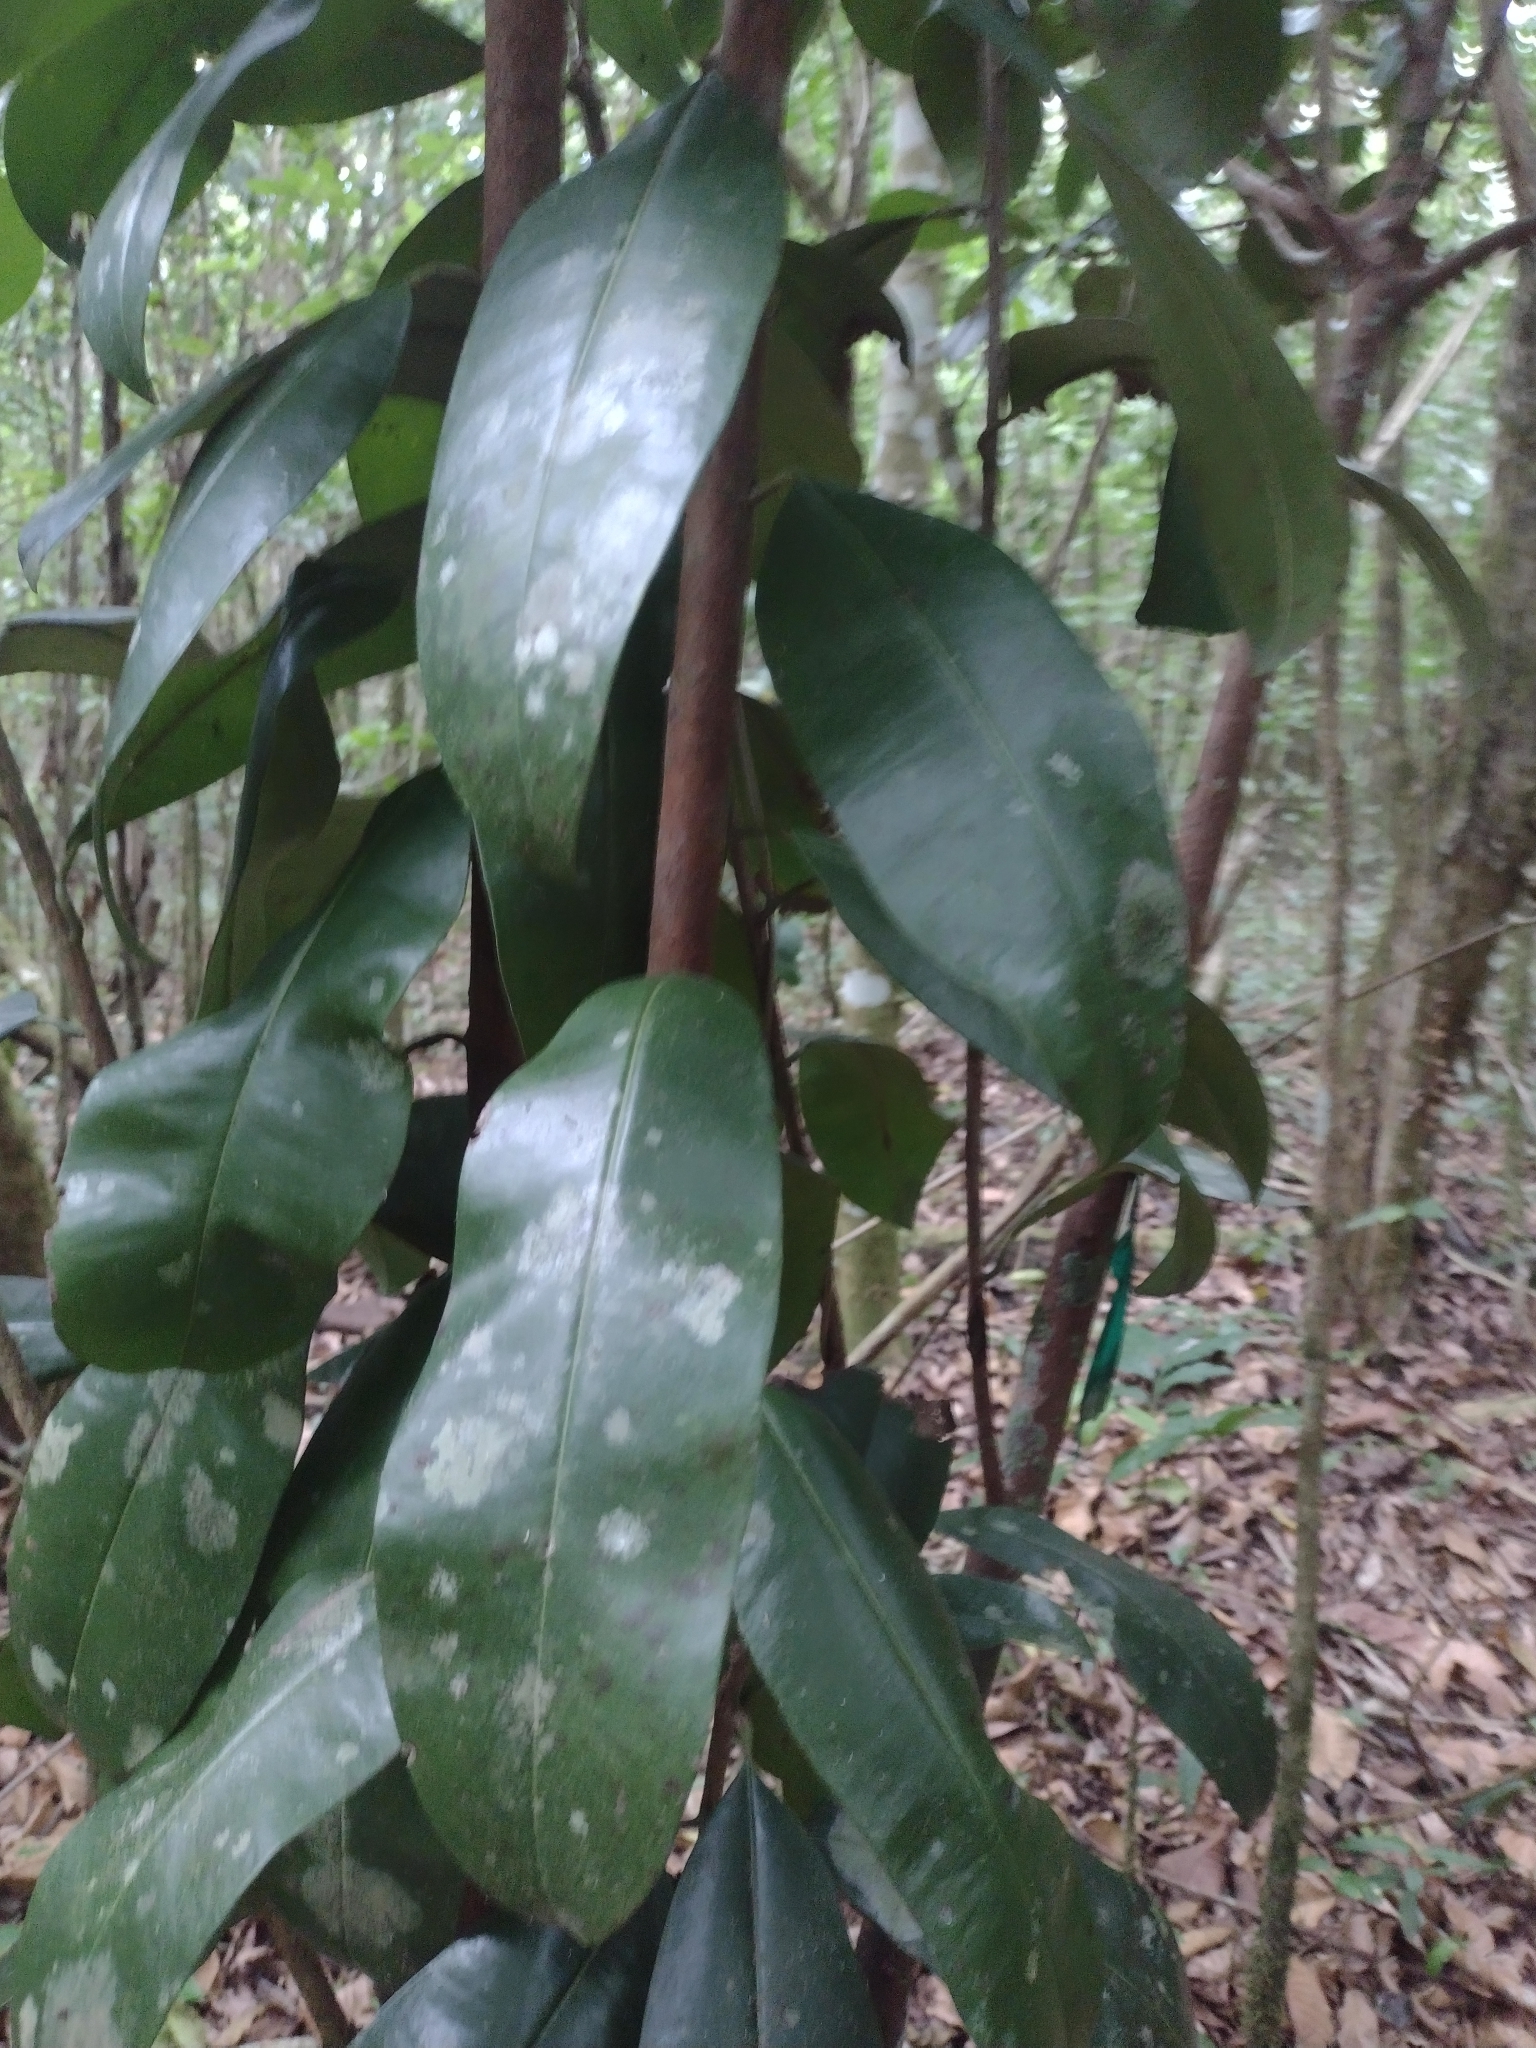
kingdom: Plantae
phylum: Tracheophyta
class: Magnoliopsida
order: Ericales
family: Sapotaceae
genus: Manilkara
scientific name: Manilkara bidentata
